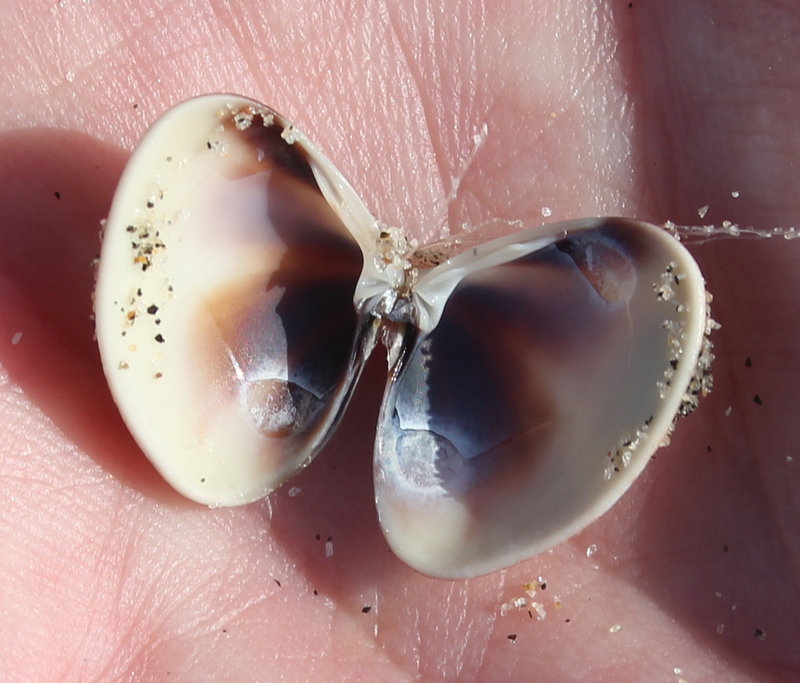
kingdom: Animalia
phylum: Mollusca
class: Bivalvia
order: Venerida
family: Veneridae
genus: Tivela
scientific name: Tivela stultorum
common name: Pismo clam
